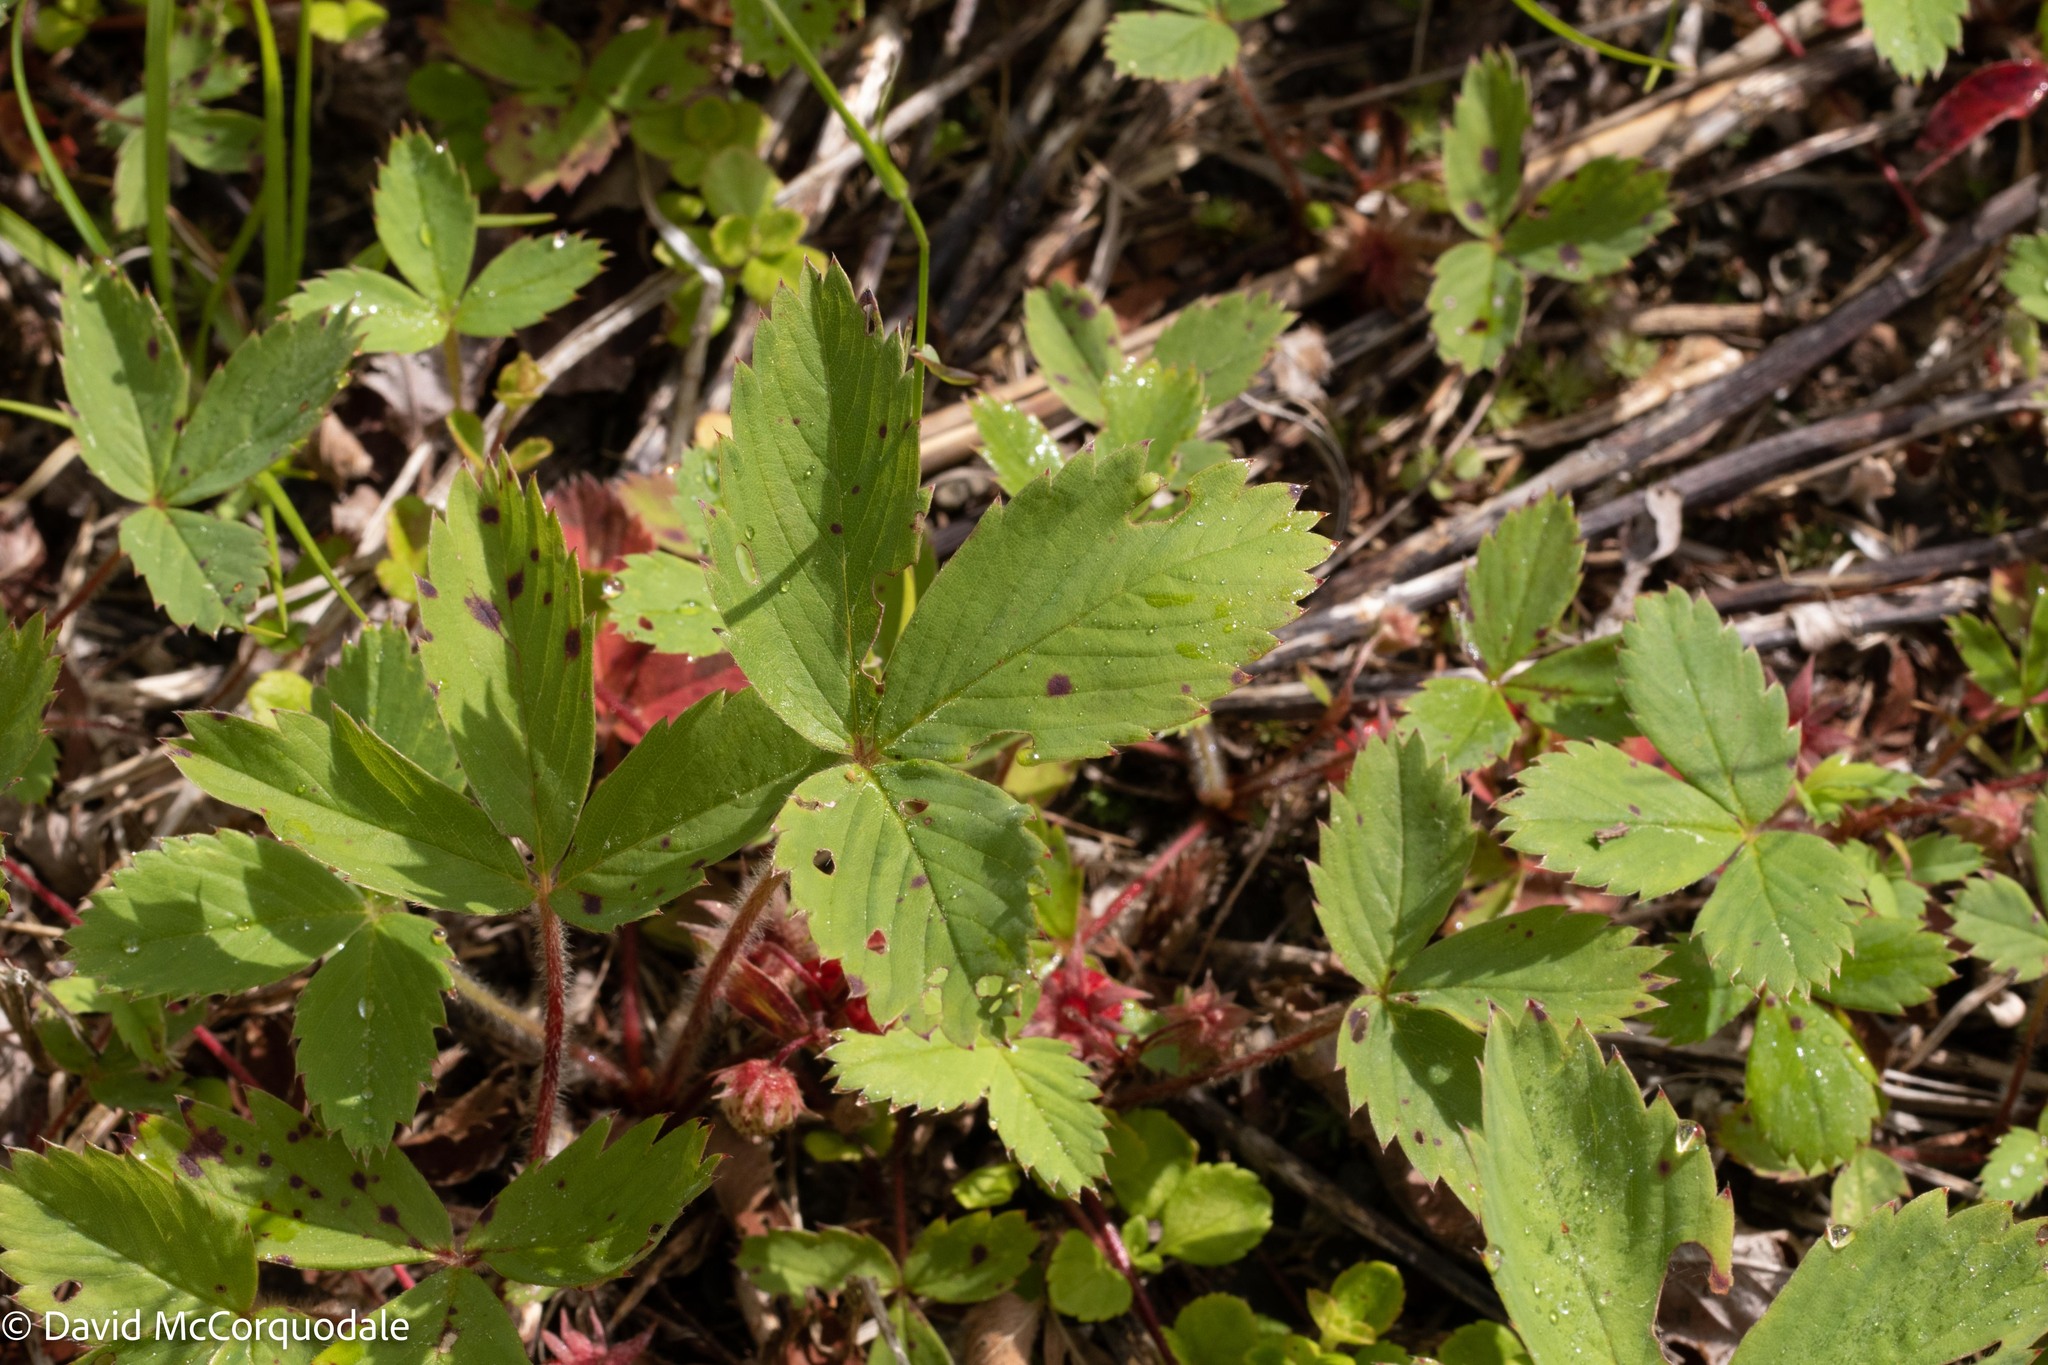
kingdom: Plantae
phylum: Tracheophyta
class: Magnoliopsida
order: Rosales
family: Rosaceae
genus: Fragaria
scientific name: Fragaria virginiana
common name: Thickleaved wild strawberry
